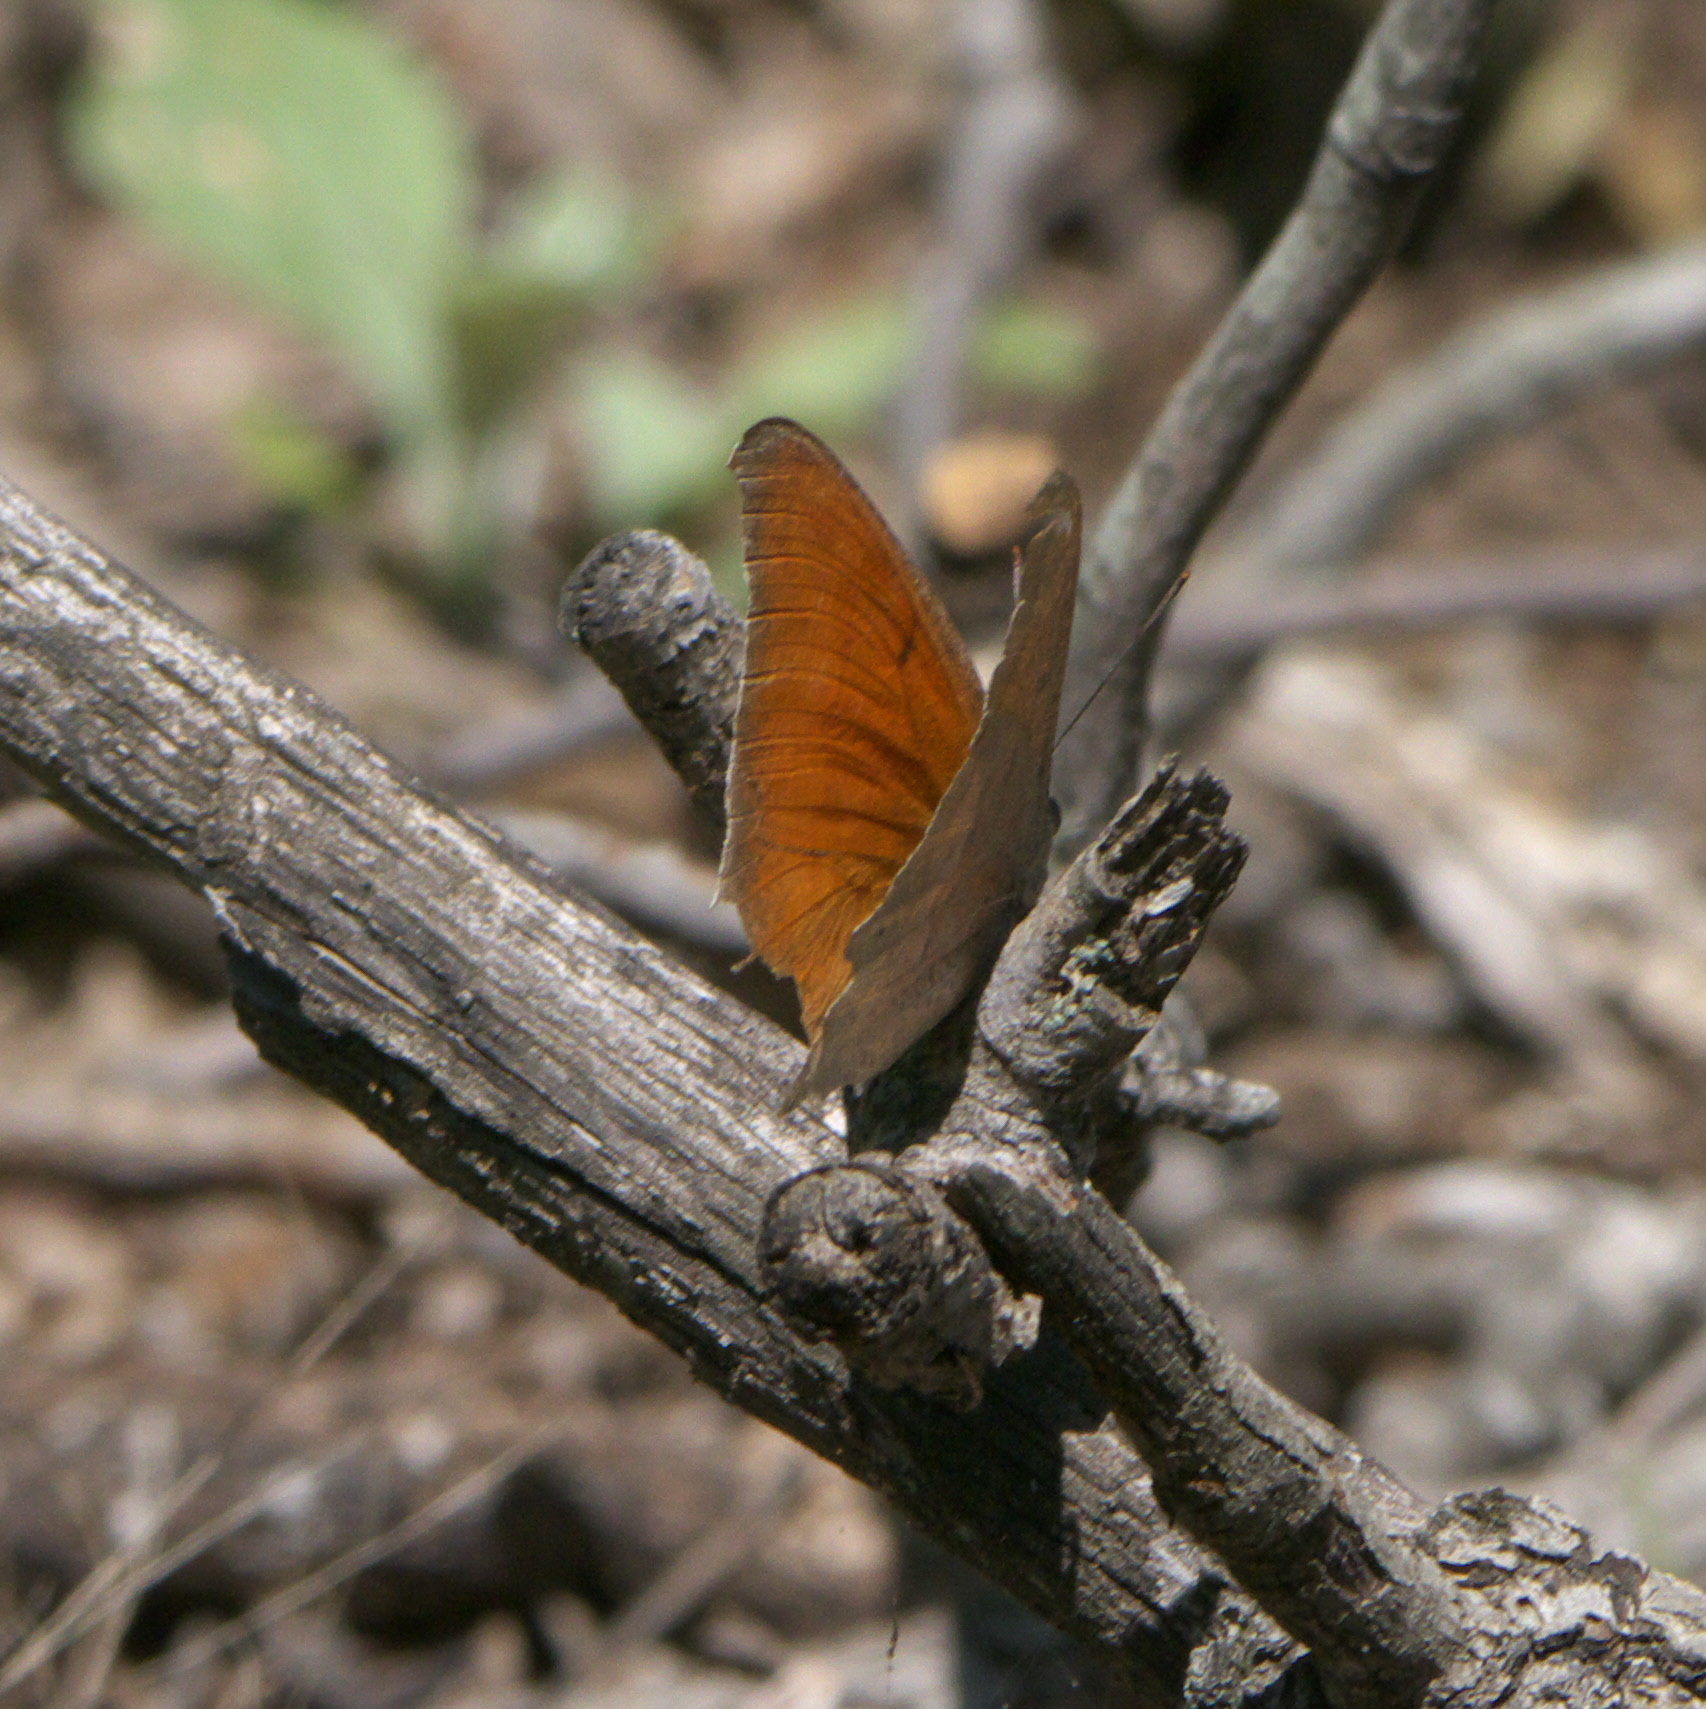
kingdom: Animalia
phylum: Arthropoda
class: Insecta
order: Lepidoptera
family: Nymphalidae
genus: Anaea
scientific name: Anaea andria
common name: Goatweed leafwing
